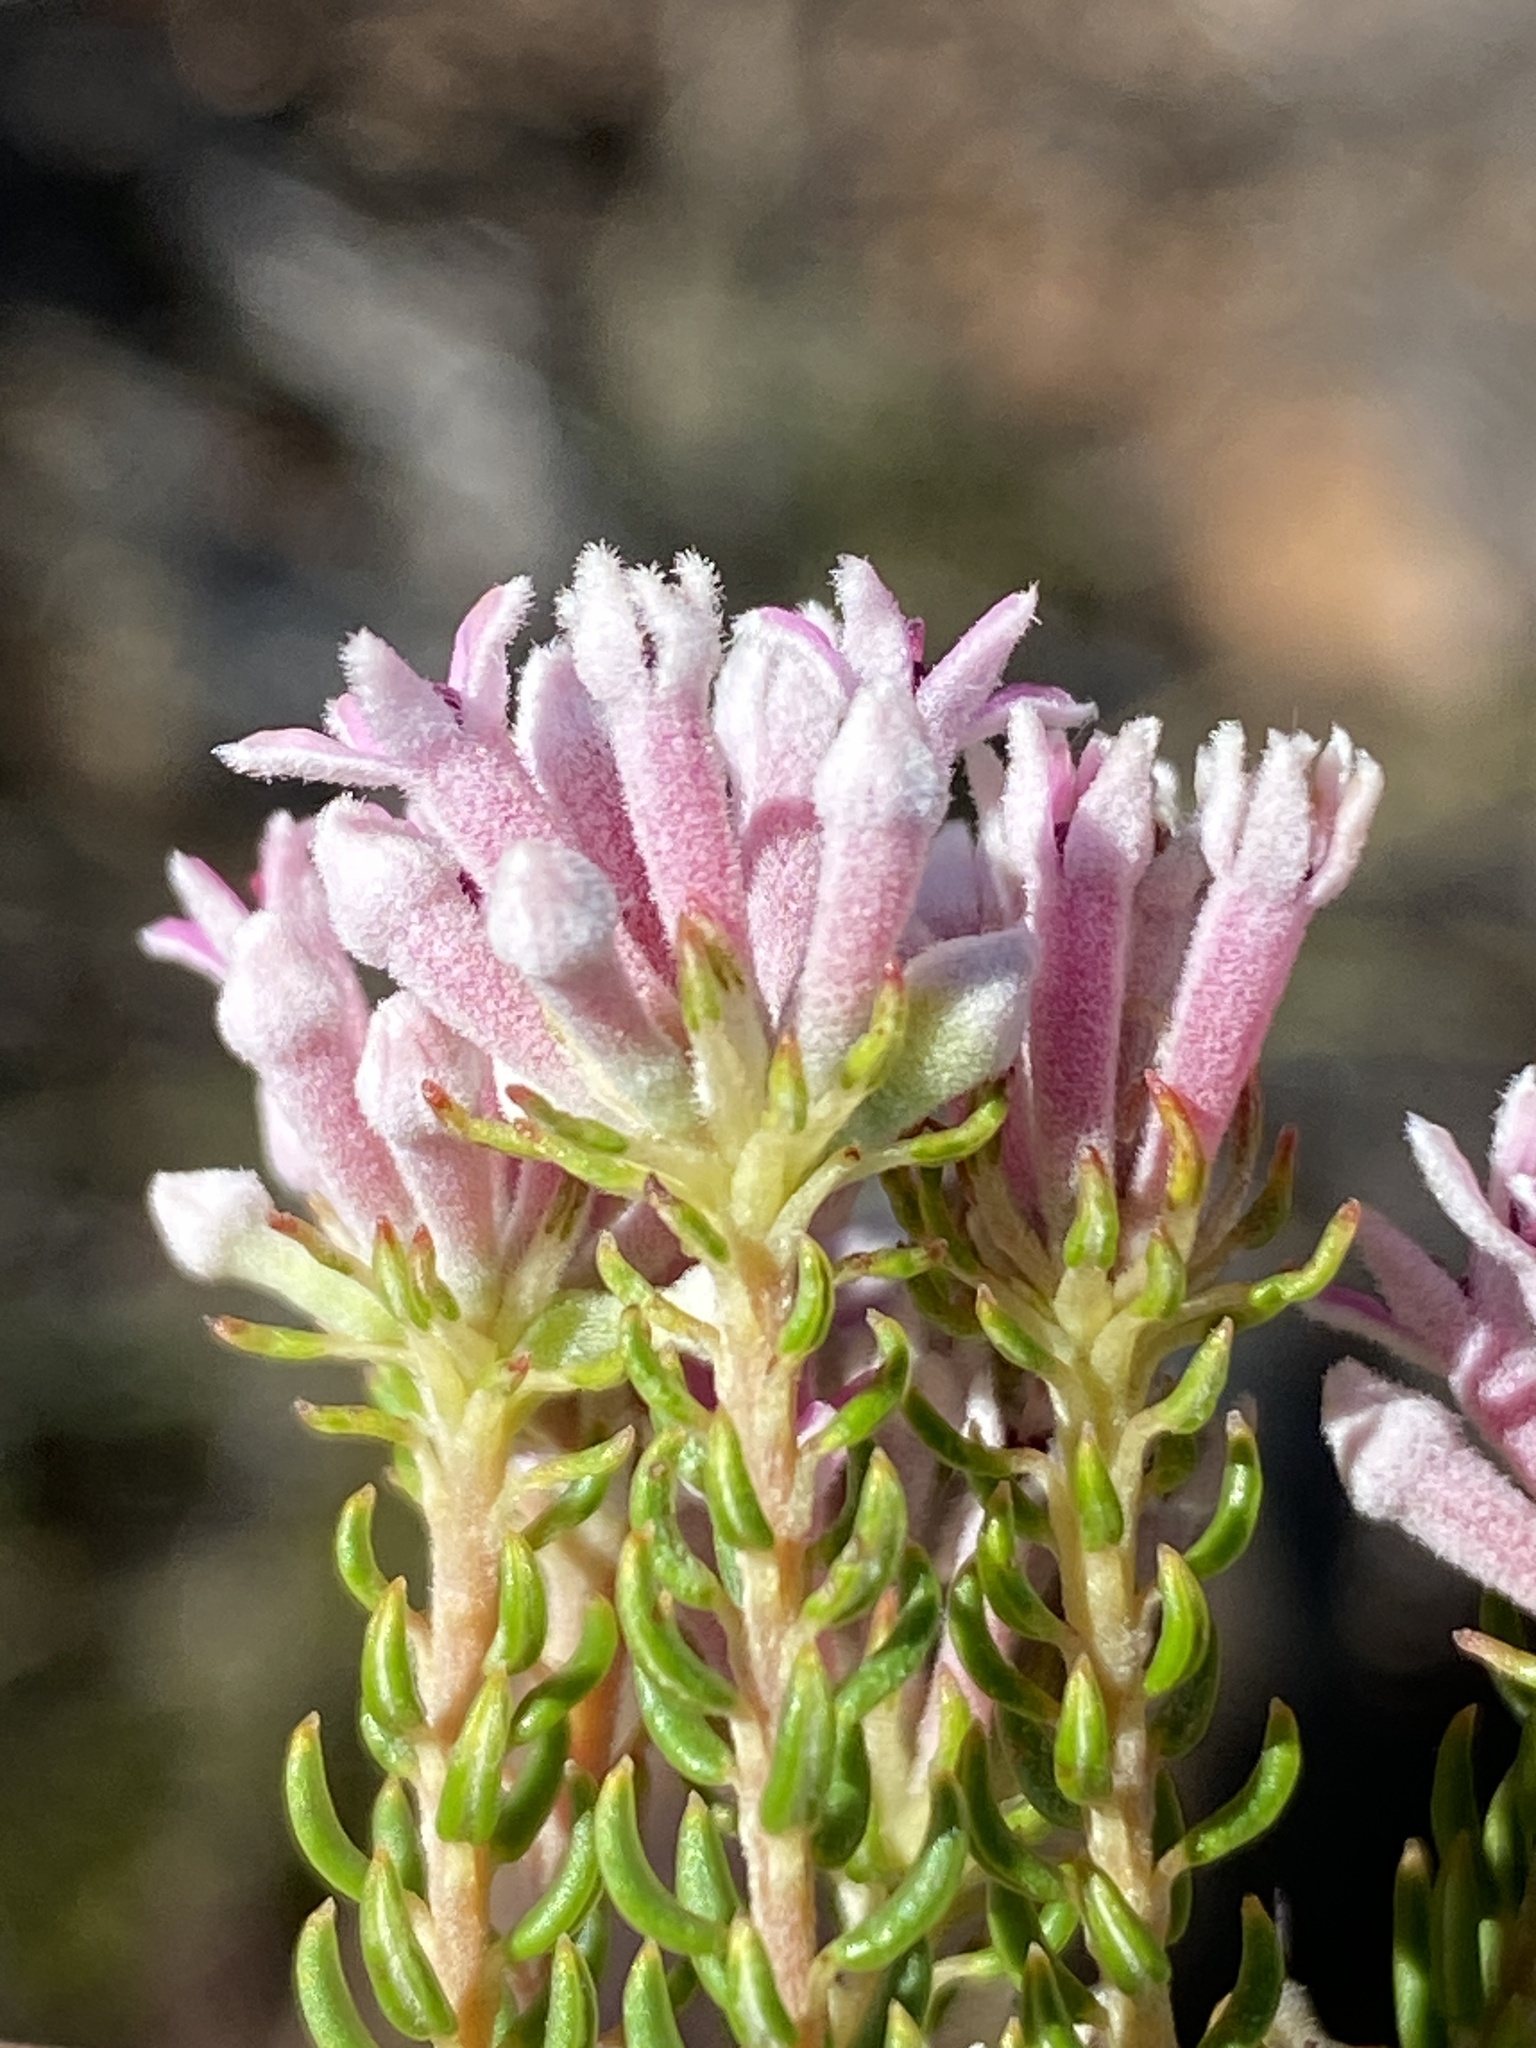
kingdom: Plantae
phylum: Tracheophyta
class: Magnoliopsida
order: Rosales
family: Rhamnaceae
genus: Phylica
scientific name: Phylica lachneaeoides
